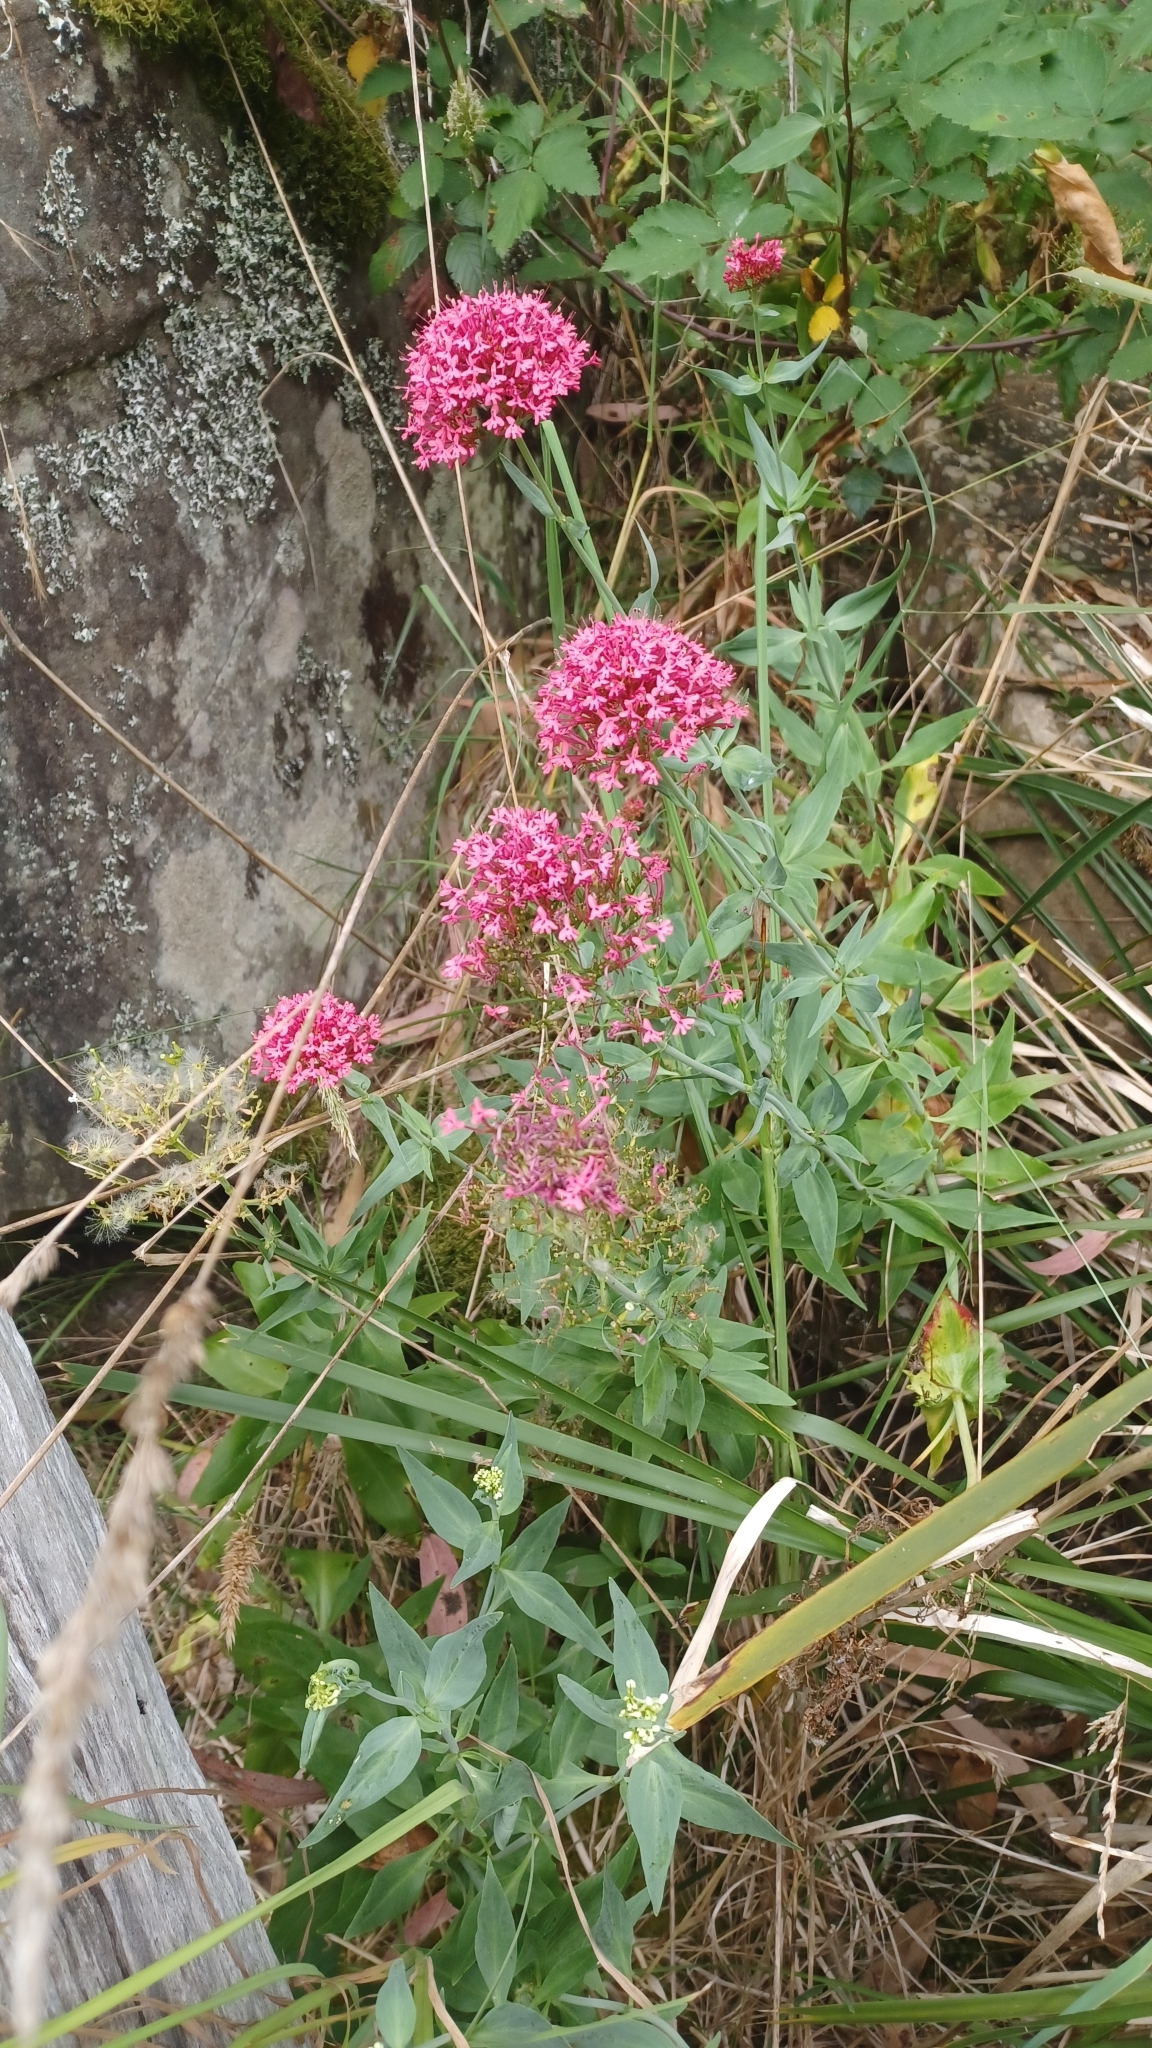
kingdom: Plantae
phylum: Tracheophyta
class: Magnoliopsida
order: Dipsacales
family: Caprifoliaceae
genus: Centranthus
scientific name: Centranthus ruber
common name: Red valerian
